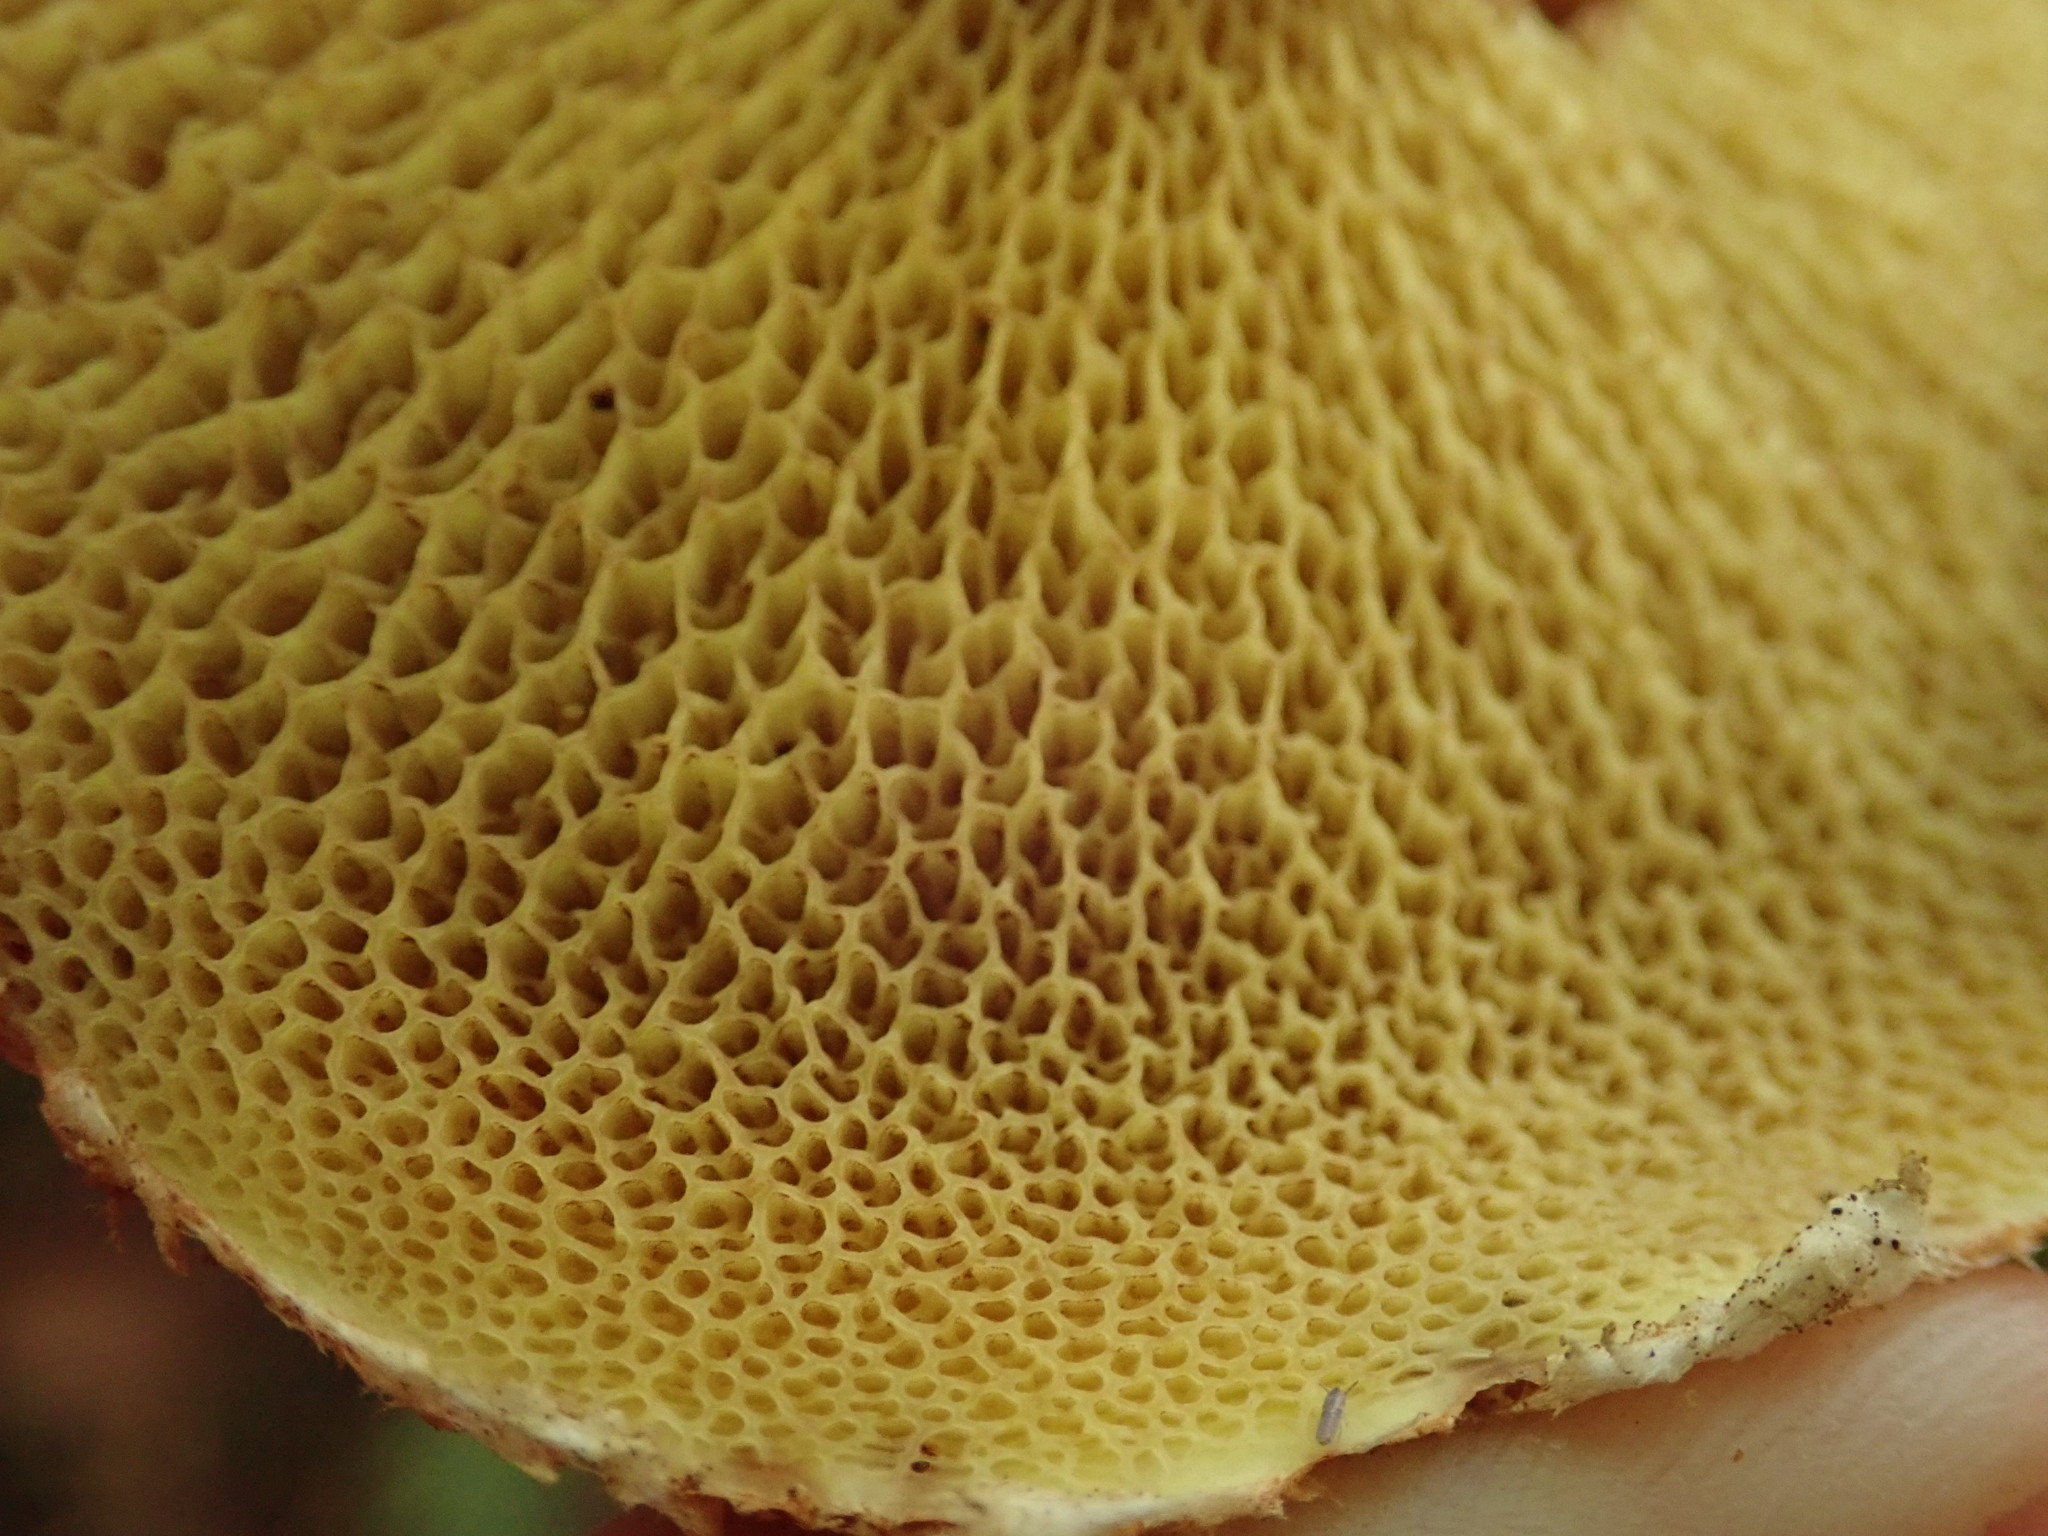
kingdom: Fungi
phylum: Basidiomycota
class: Agaricomycetes
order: Boletales
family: Suillaceae
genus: Suillus
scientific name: Suillus lakei
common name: Western painted suillus
